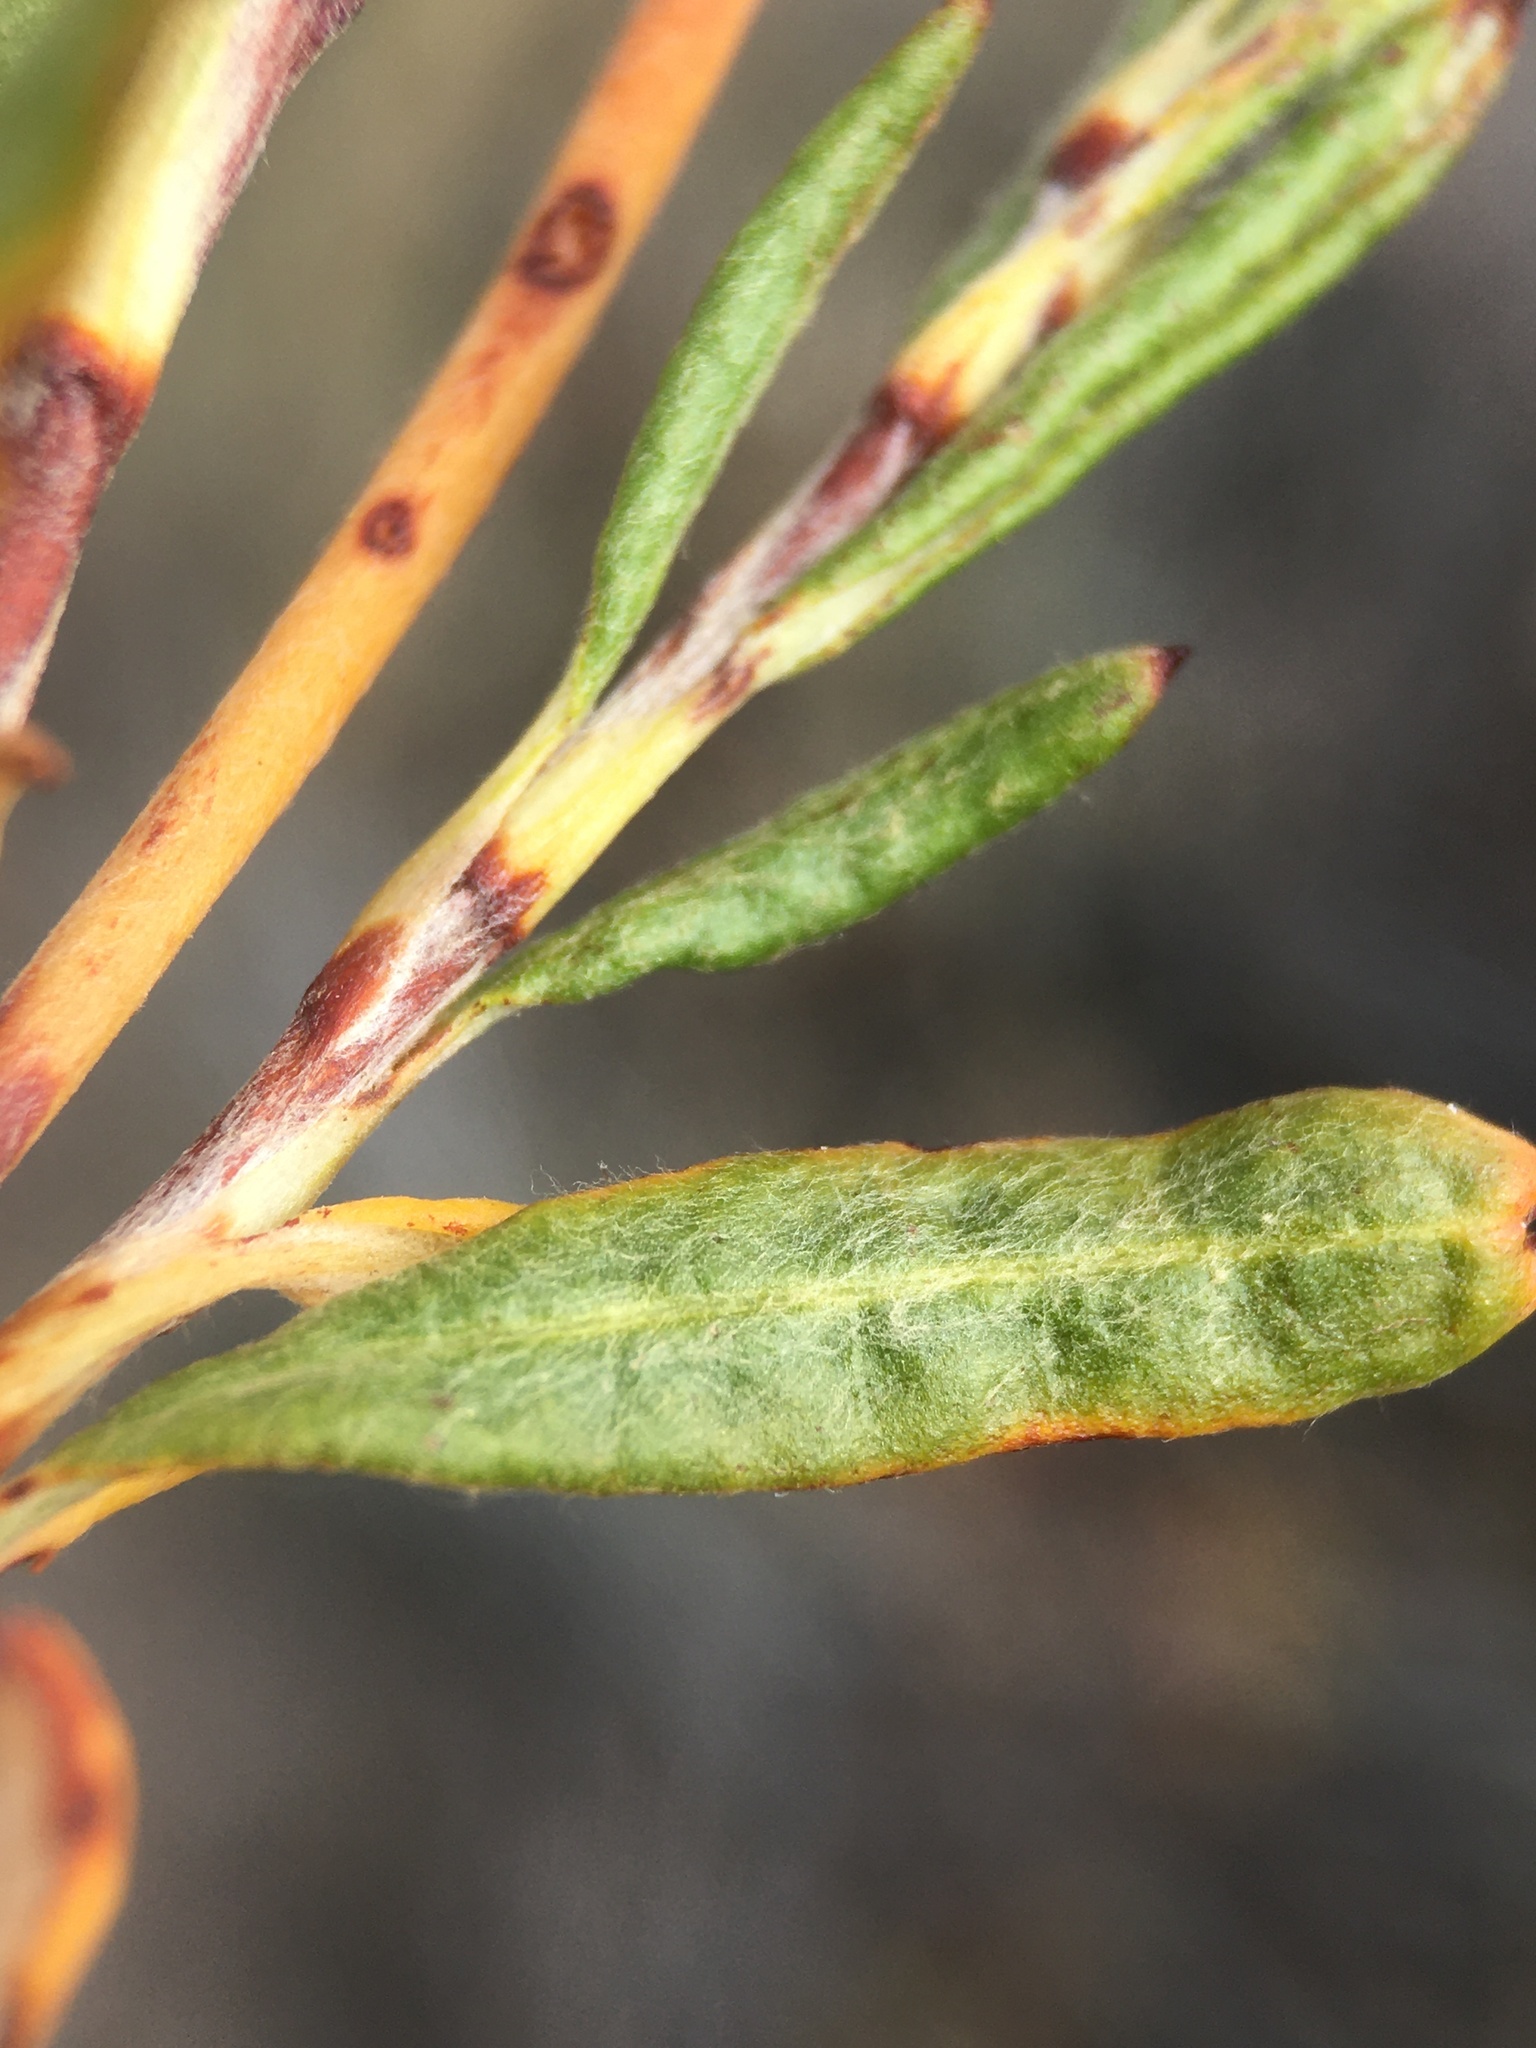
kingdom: Plantae
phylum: Tracheophyta
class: Magnoliopsida
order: Caryophyllales
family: Polygonaceae
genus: Eriogonum
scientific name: Eriogonum microtheca
